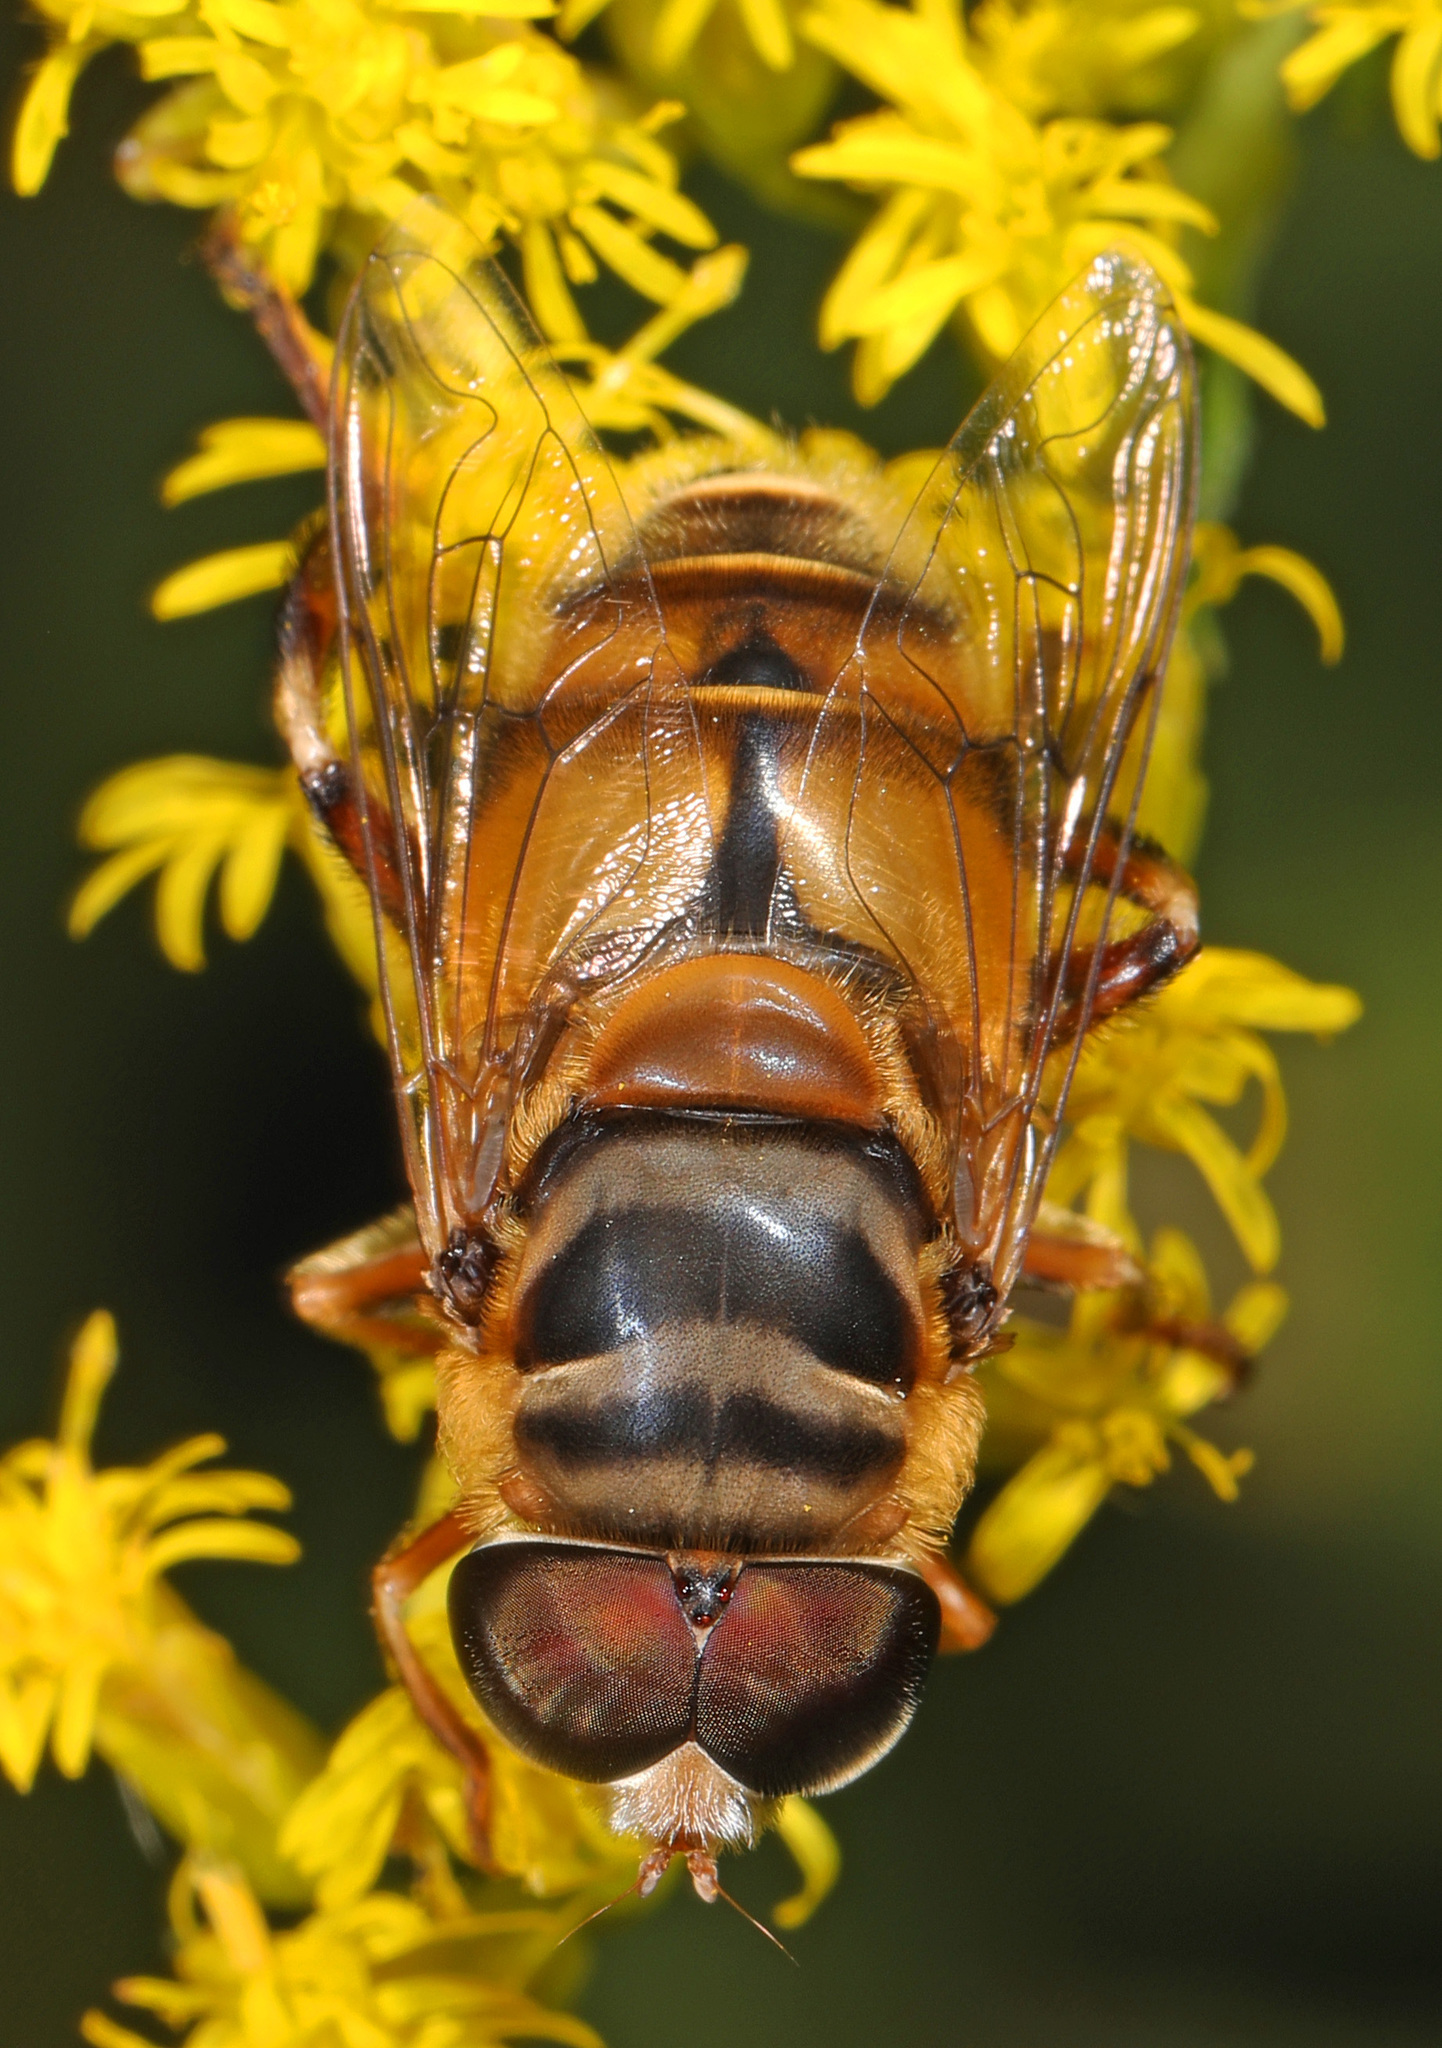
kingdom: Animalia
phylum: Arthropoda
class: Insecta
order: Diptera
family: Syrphidae
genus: Palpada
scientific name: Palpada vinetorum
